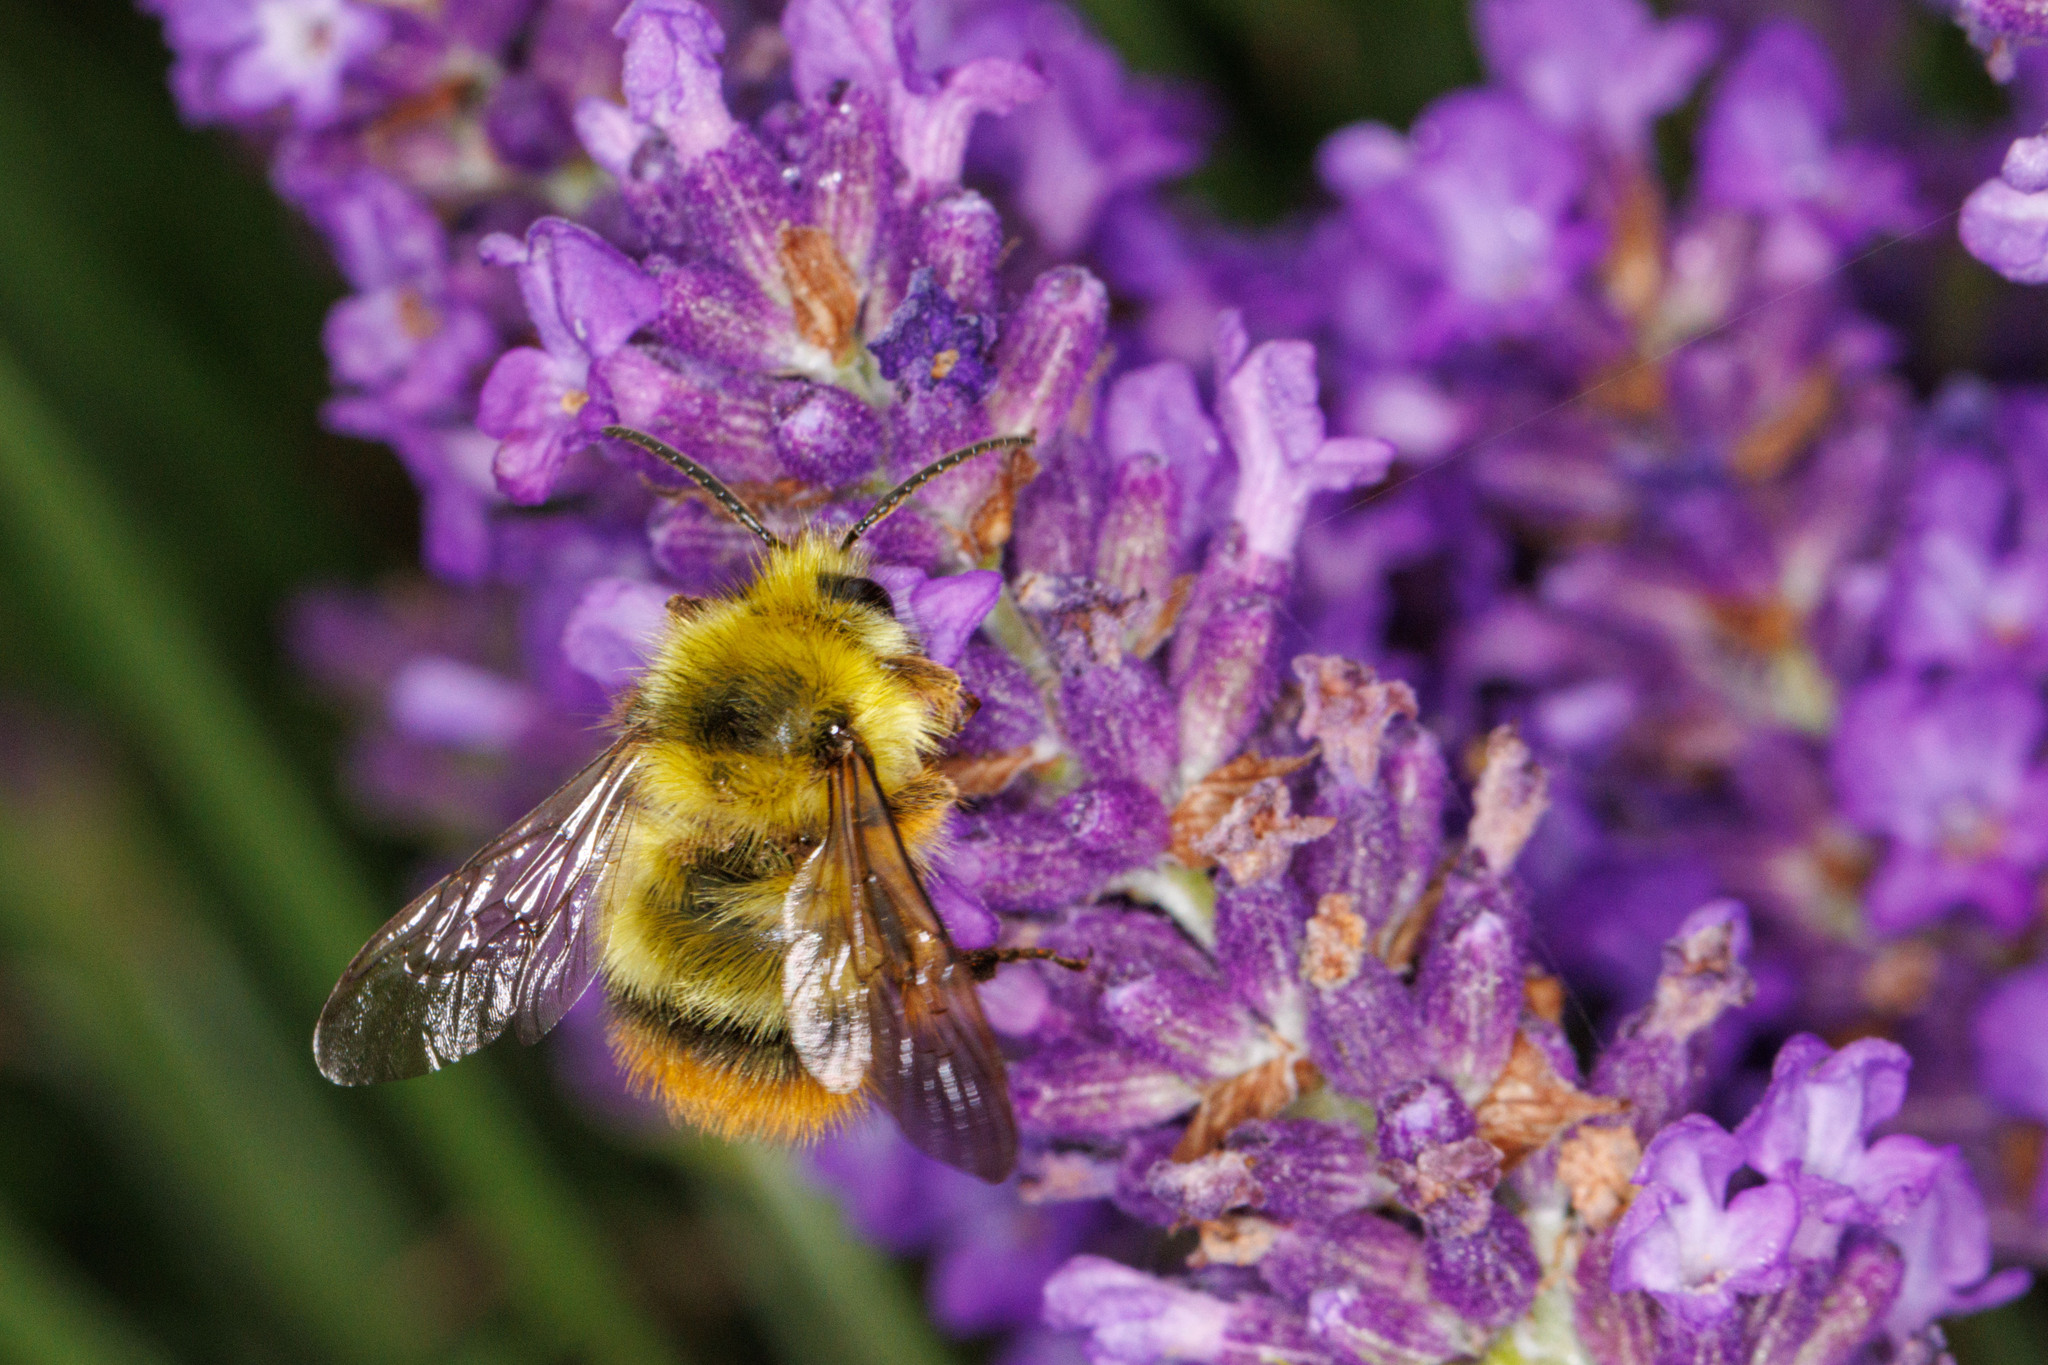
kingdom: Animalia
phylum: Arthropoda
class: Insecta
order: Hymenoptera
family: Apidae
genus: Bombus
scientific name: Bombus mixtus
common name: Fuzzy-horned bumble bee
